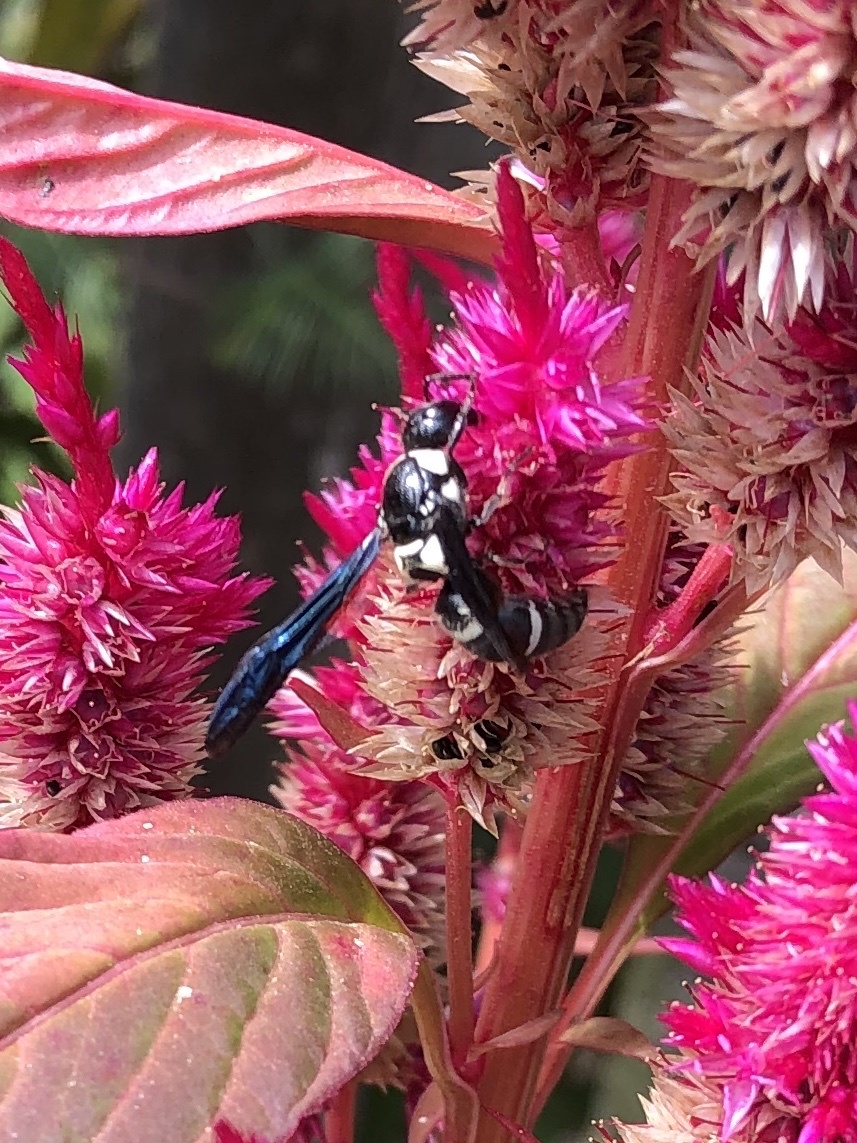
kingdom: Animalia
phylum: Arthropoda
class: Insecta
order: Hymenoptera
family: Eumenidae
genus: Pseudodynerus
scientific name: Pseudodynerus quadrisectus
